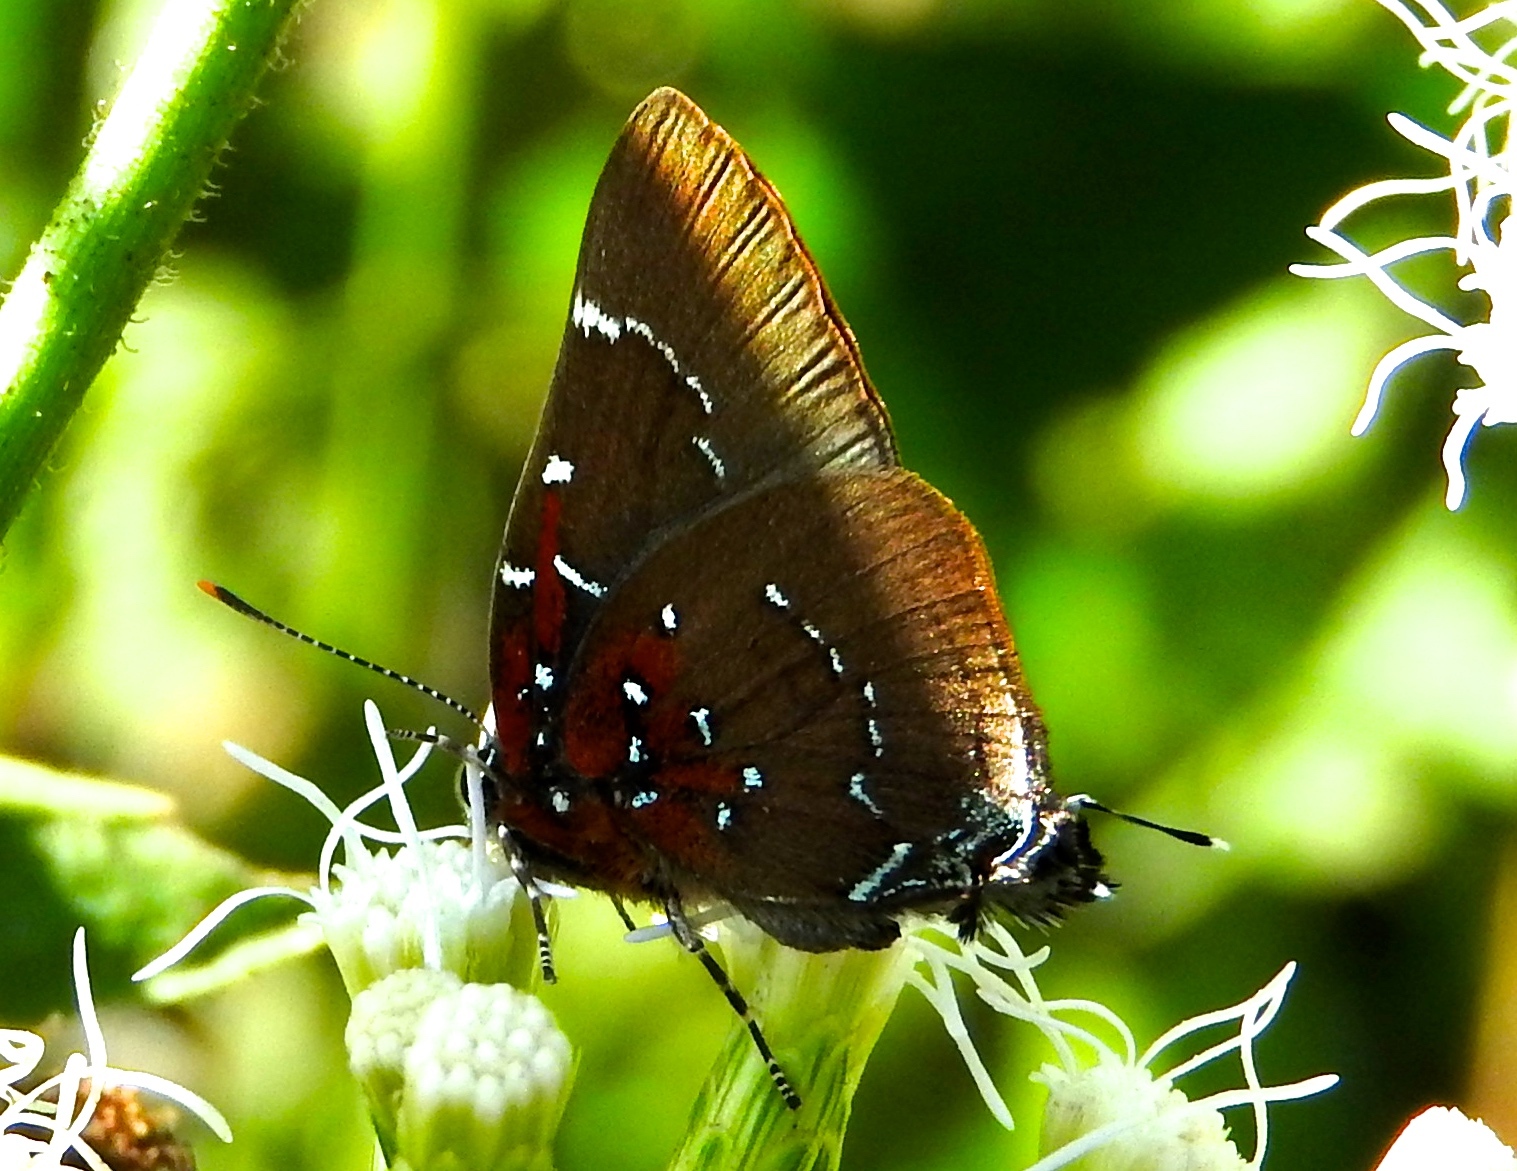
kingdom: Animalia
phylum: Arthropoda
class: Insecta
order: Lepidoptera
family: Lycaenidae
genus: Atlides
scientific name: Atlides Brangas neora
